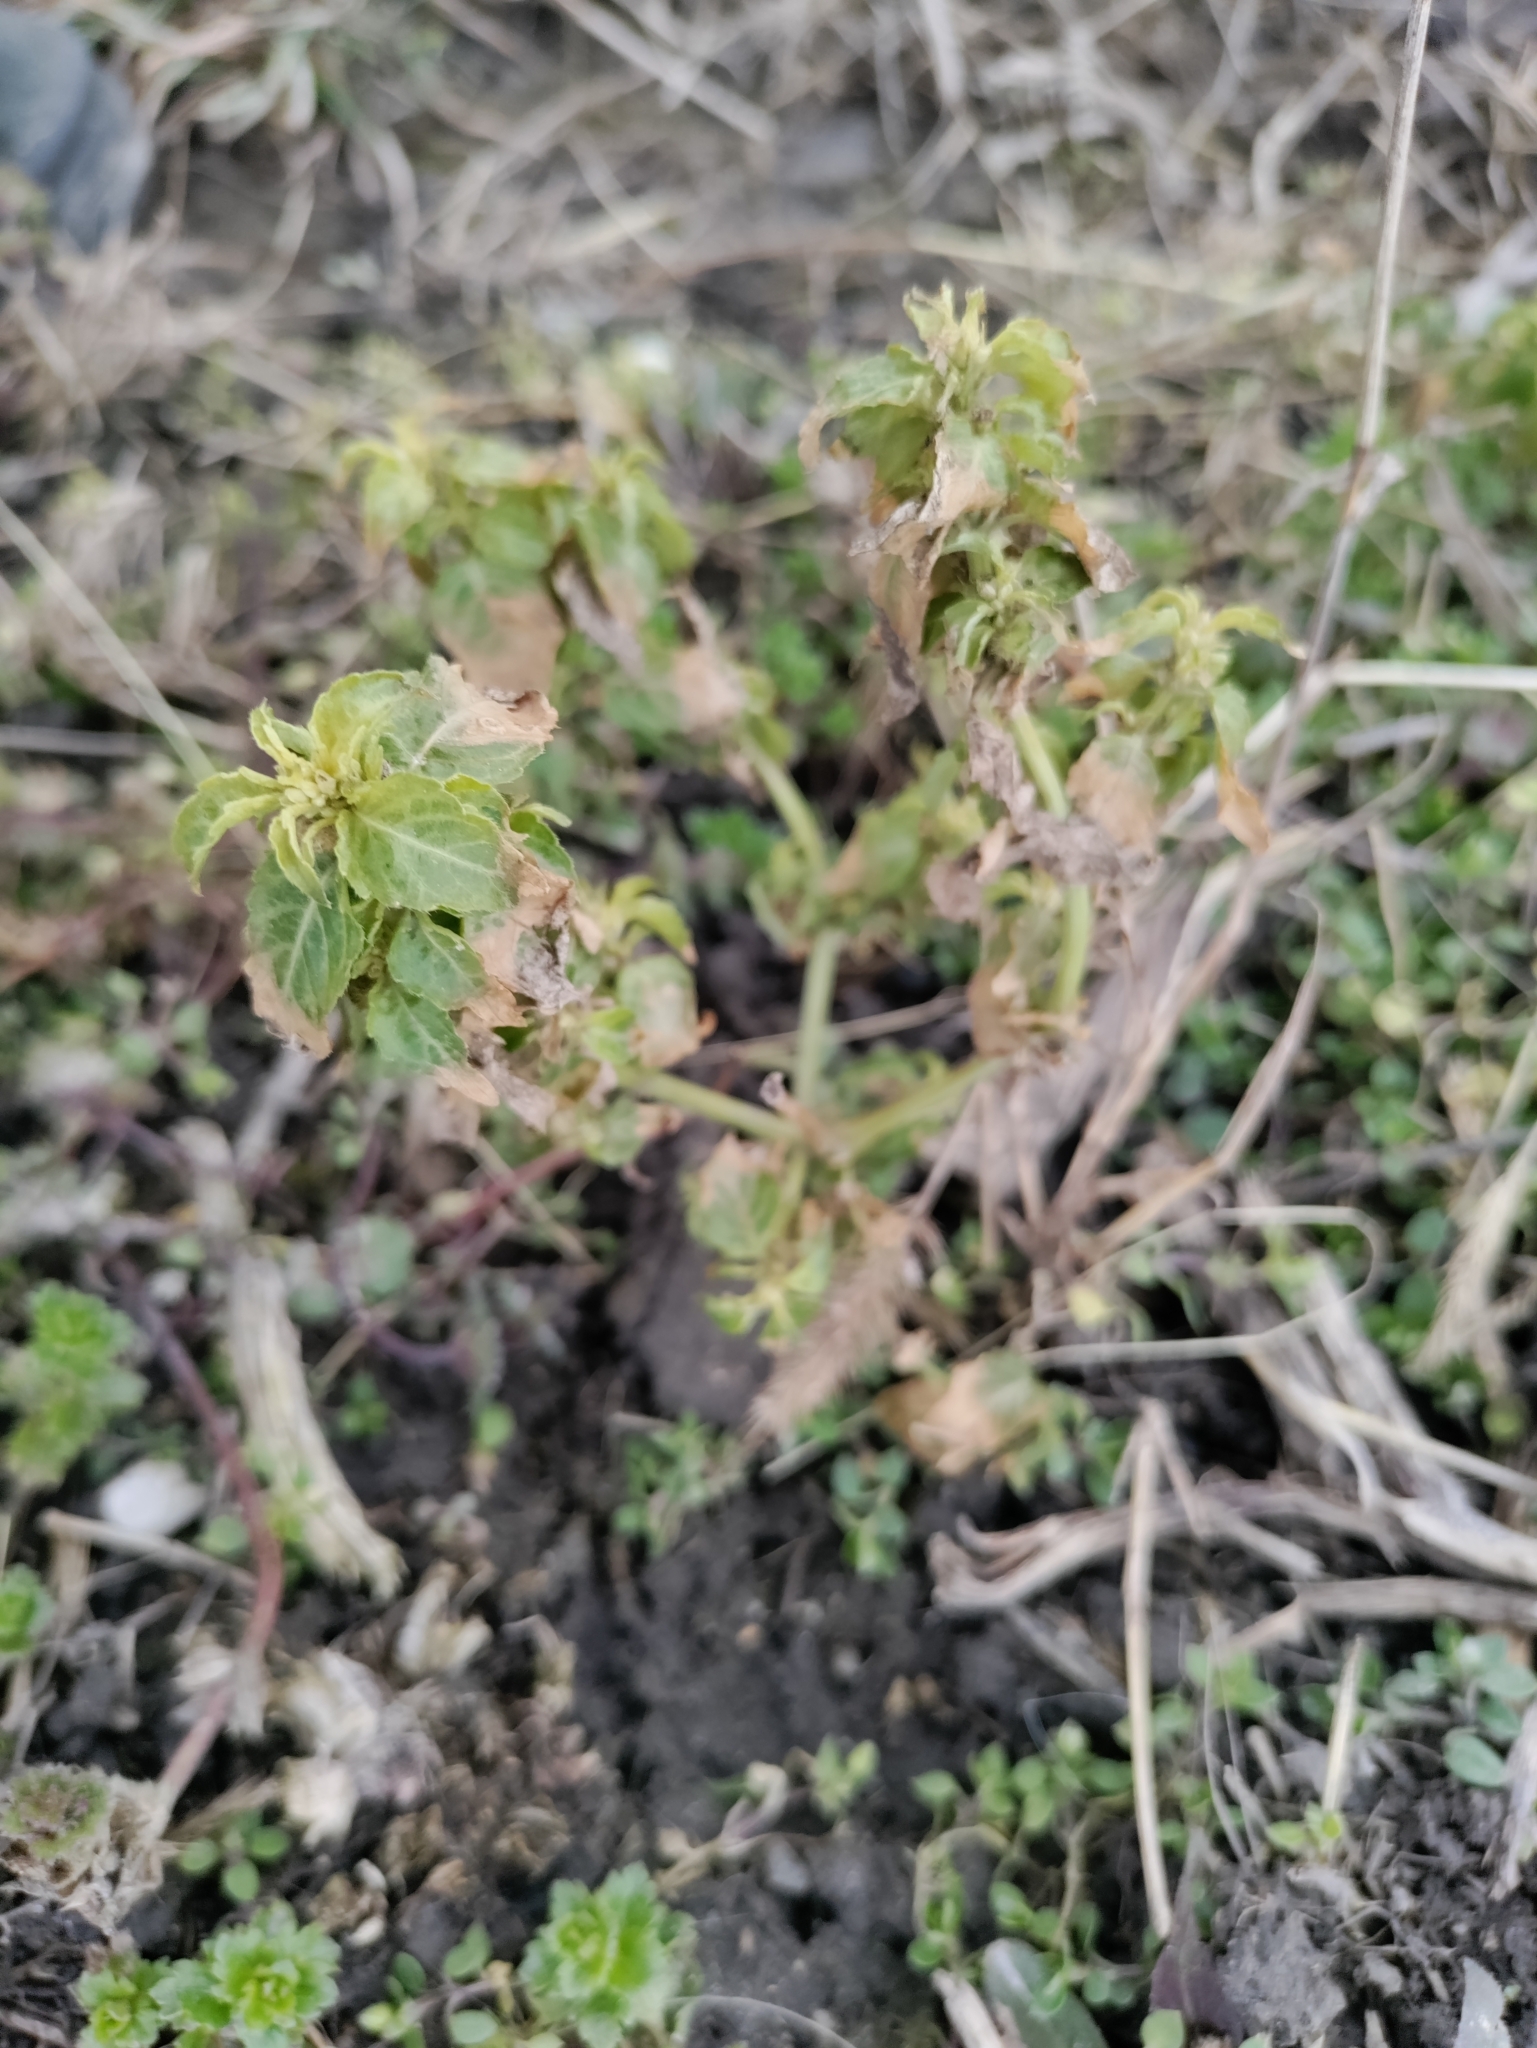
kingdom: Plantae
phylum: Tracheophyta
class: Magnoliopsida
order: Malpighiales
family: Euphorbiaceae
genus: Mercurialis
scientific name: Mercurialis annua
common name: Annual mercury
